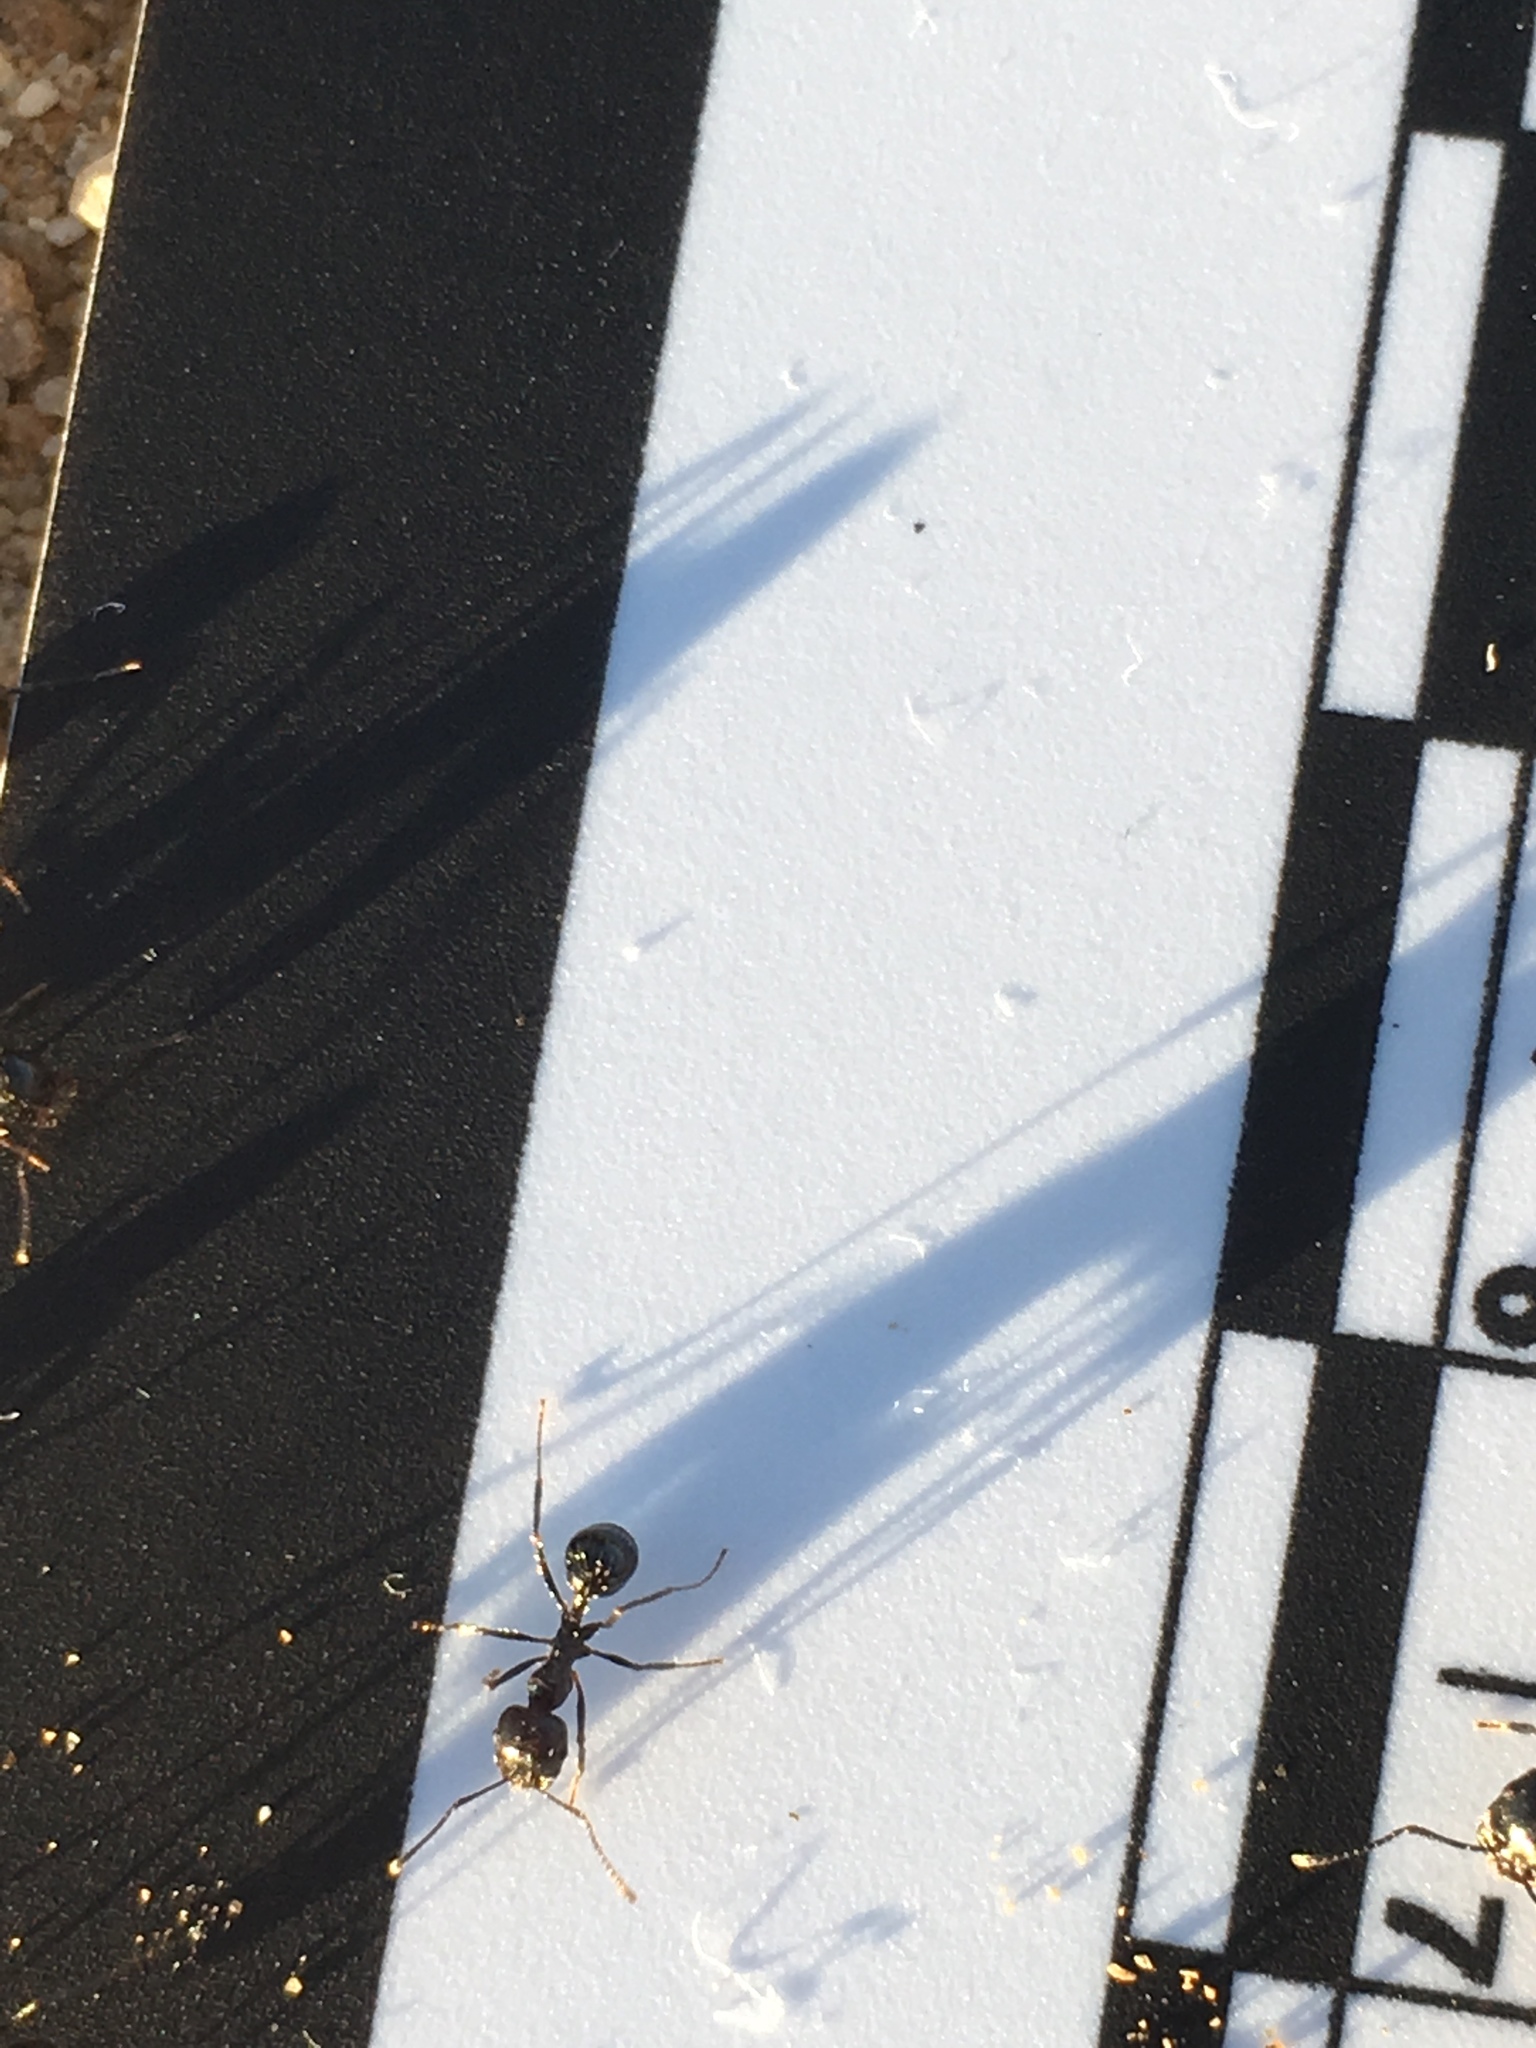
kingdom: Animalia
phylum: Arthropoda
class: Insecta
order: Hymenoptera
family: Formicidae
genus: Messor
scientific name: Messor pergandei
